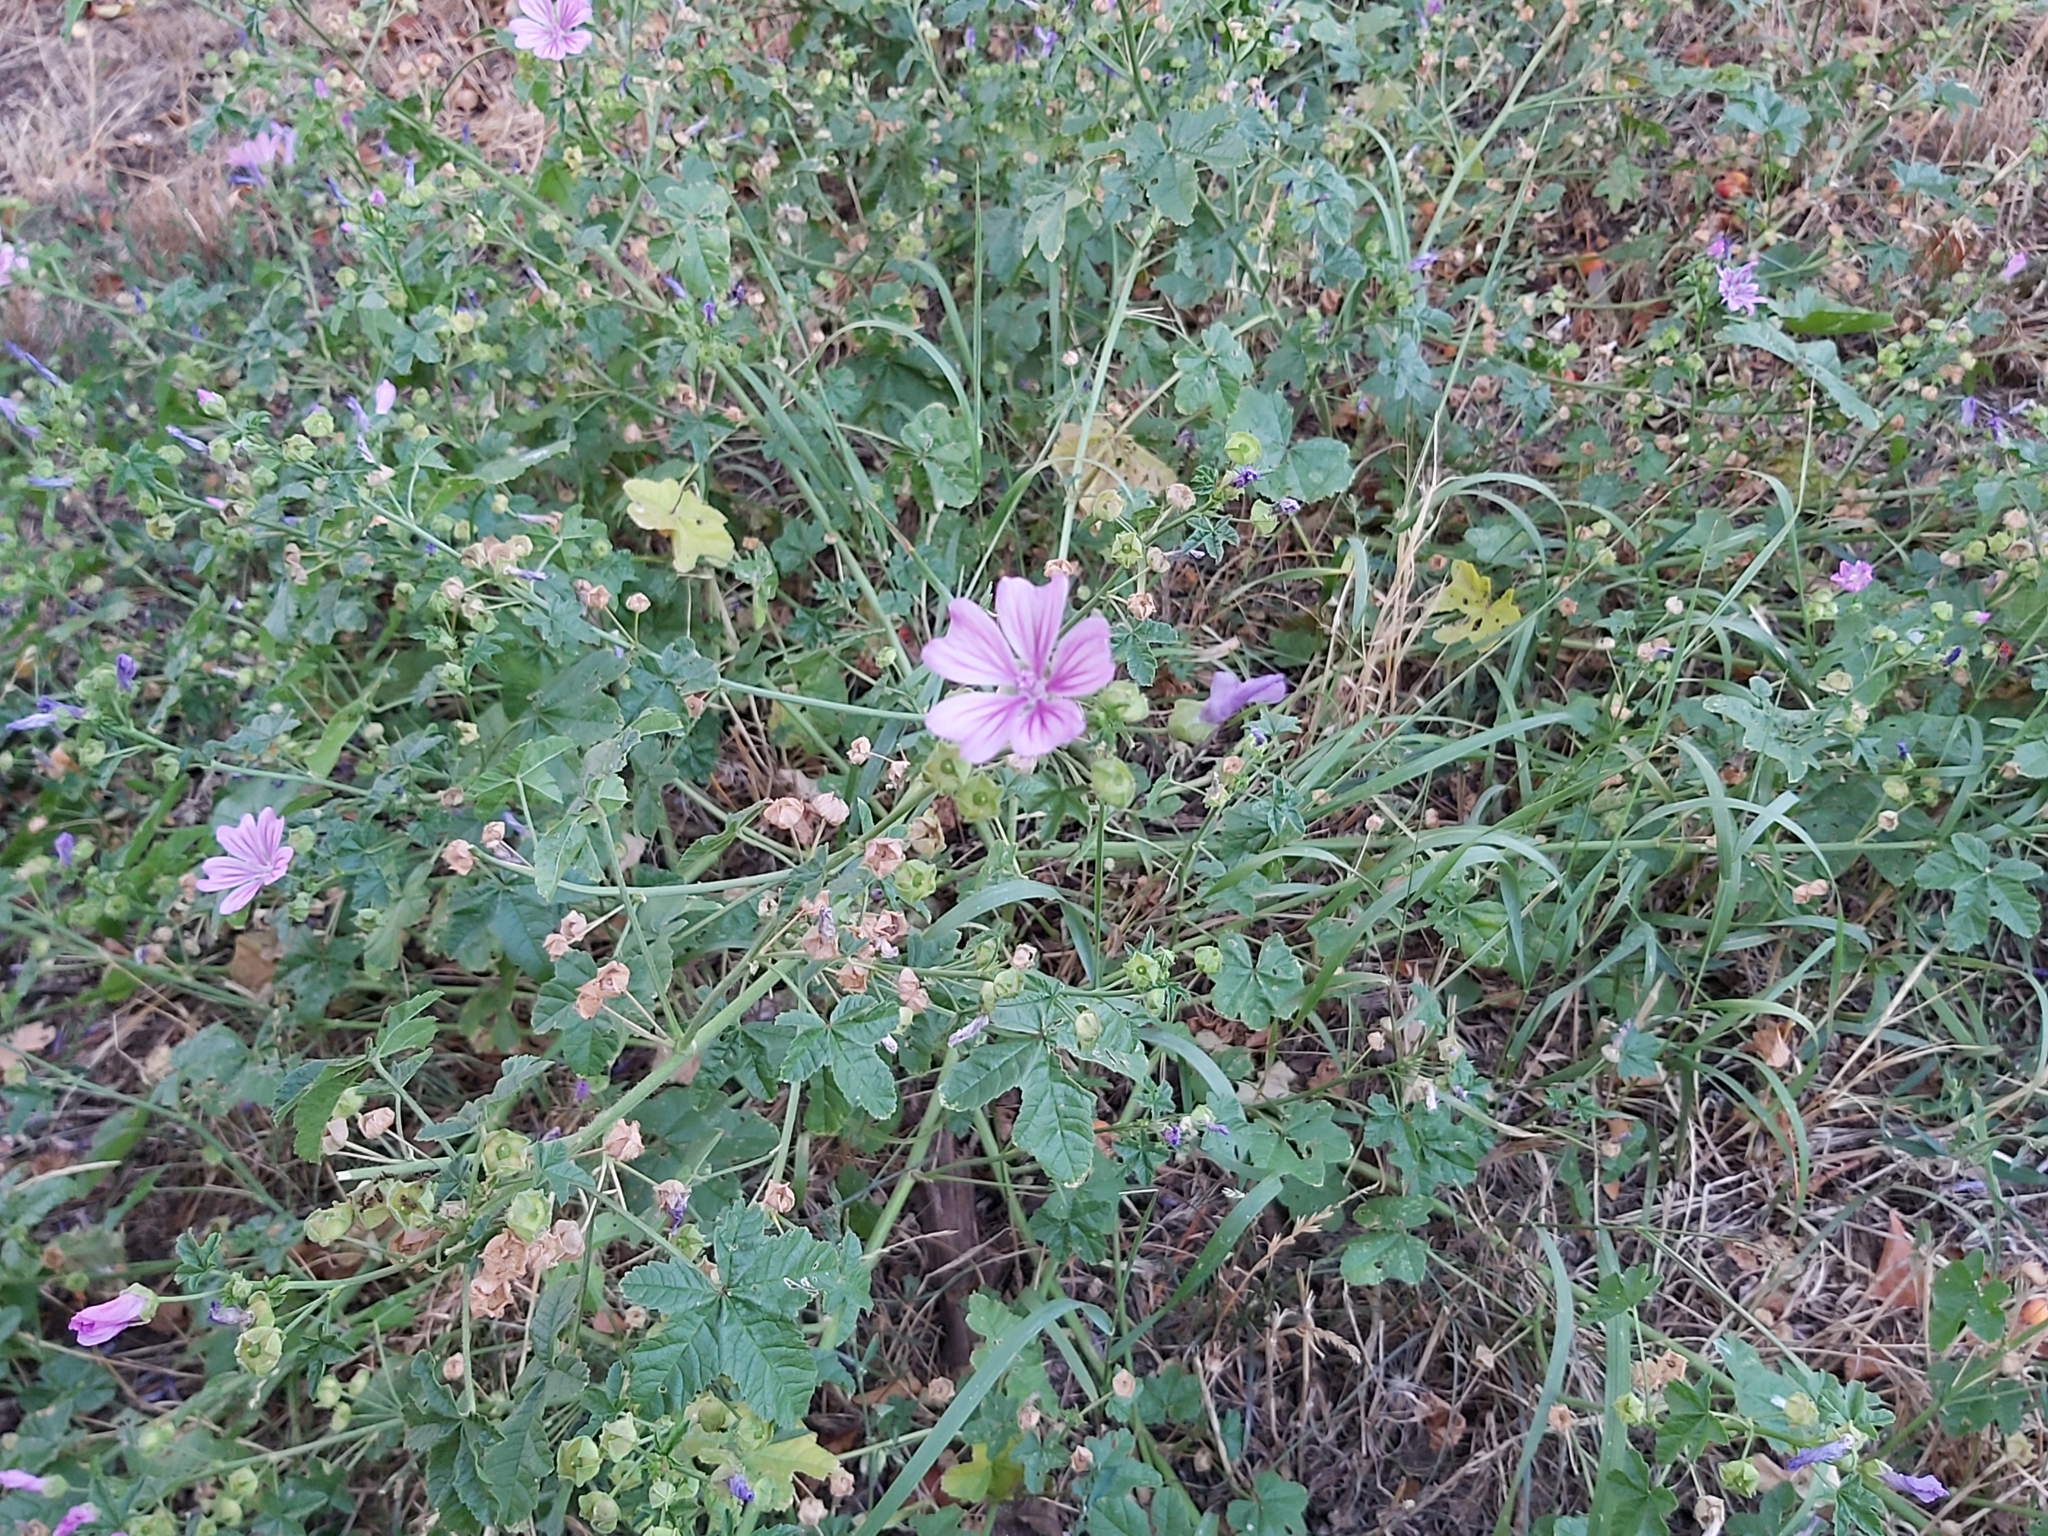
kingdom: Plantae
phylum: Tracheophyta
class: Magnoliopsida
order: Malvales
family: Malvaceae
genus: Malva
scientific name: Malva sylvestris
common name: Common mallow
